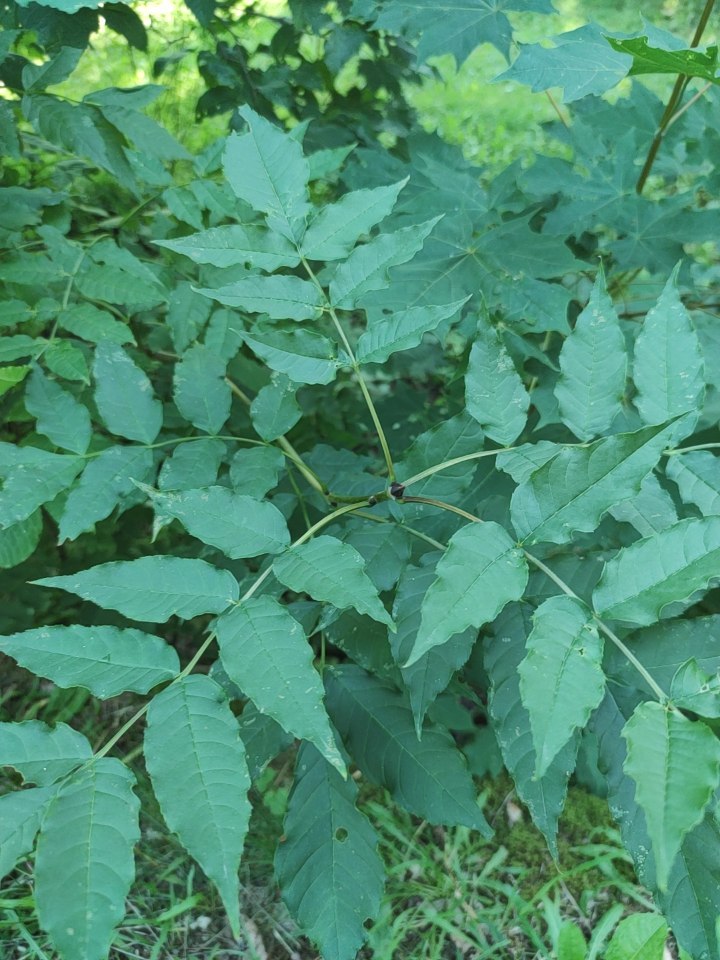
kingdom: Plantae
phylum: Tracheophyta
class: Magnoliopsida
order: Lamiales
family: Oleaceae
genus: Fraxinus
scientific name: Fraxinus excelsior
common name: European ash
